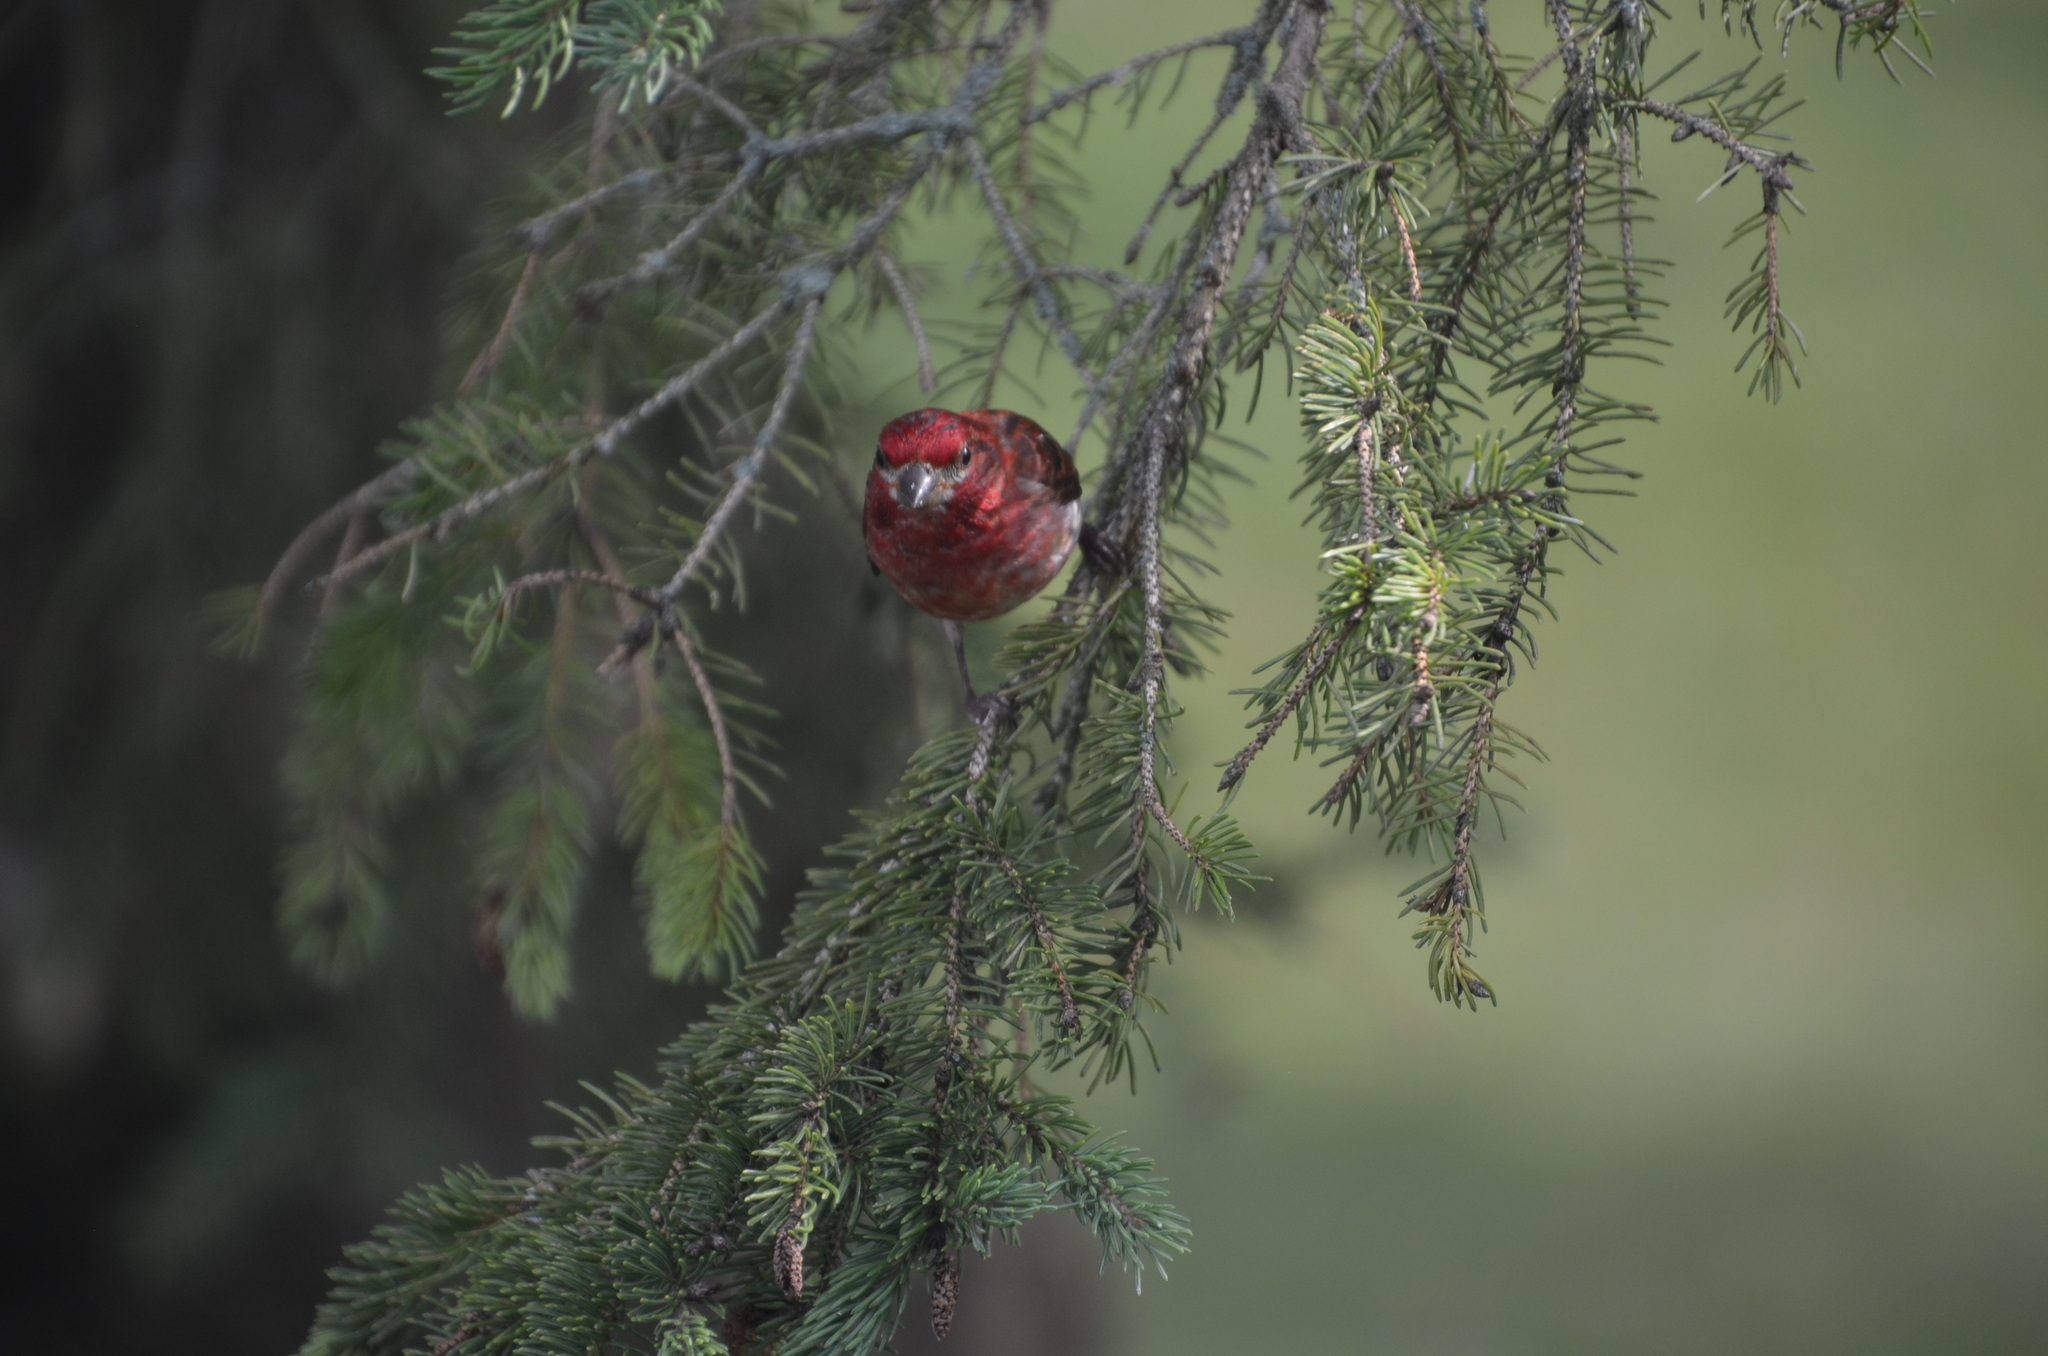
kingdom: Animalia
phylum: Chordata
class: Aves
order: Passeriformes
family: Fringillidae
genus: Haemorhous
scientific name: Haemorhous purpureus
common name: Purple finch
